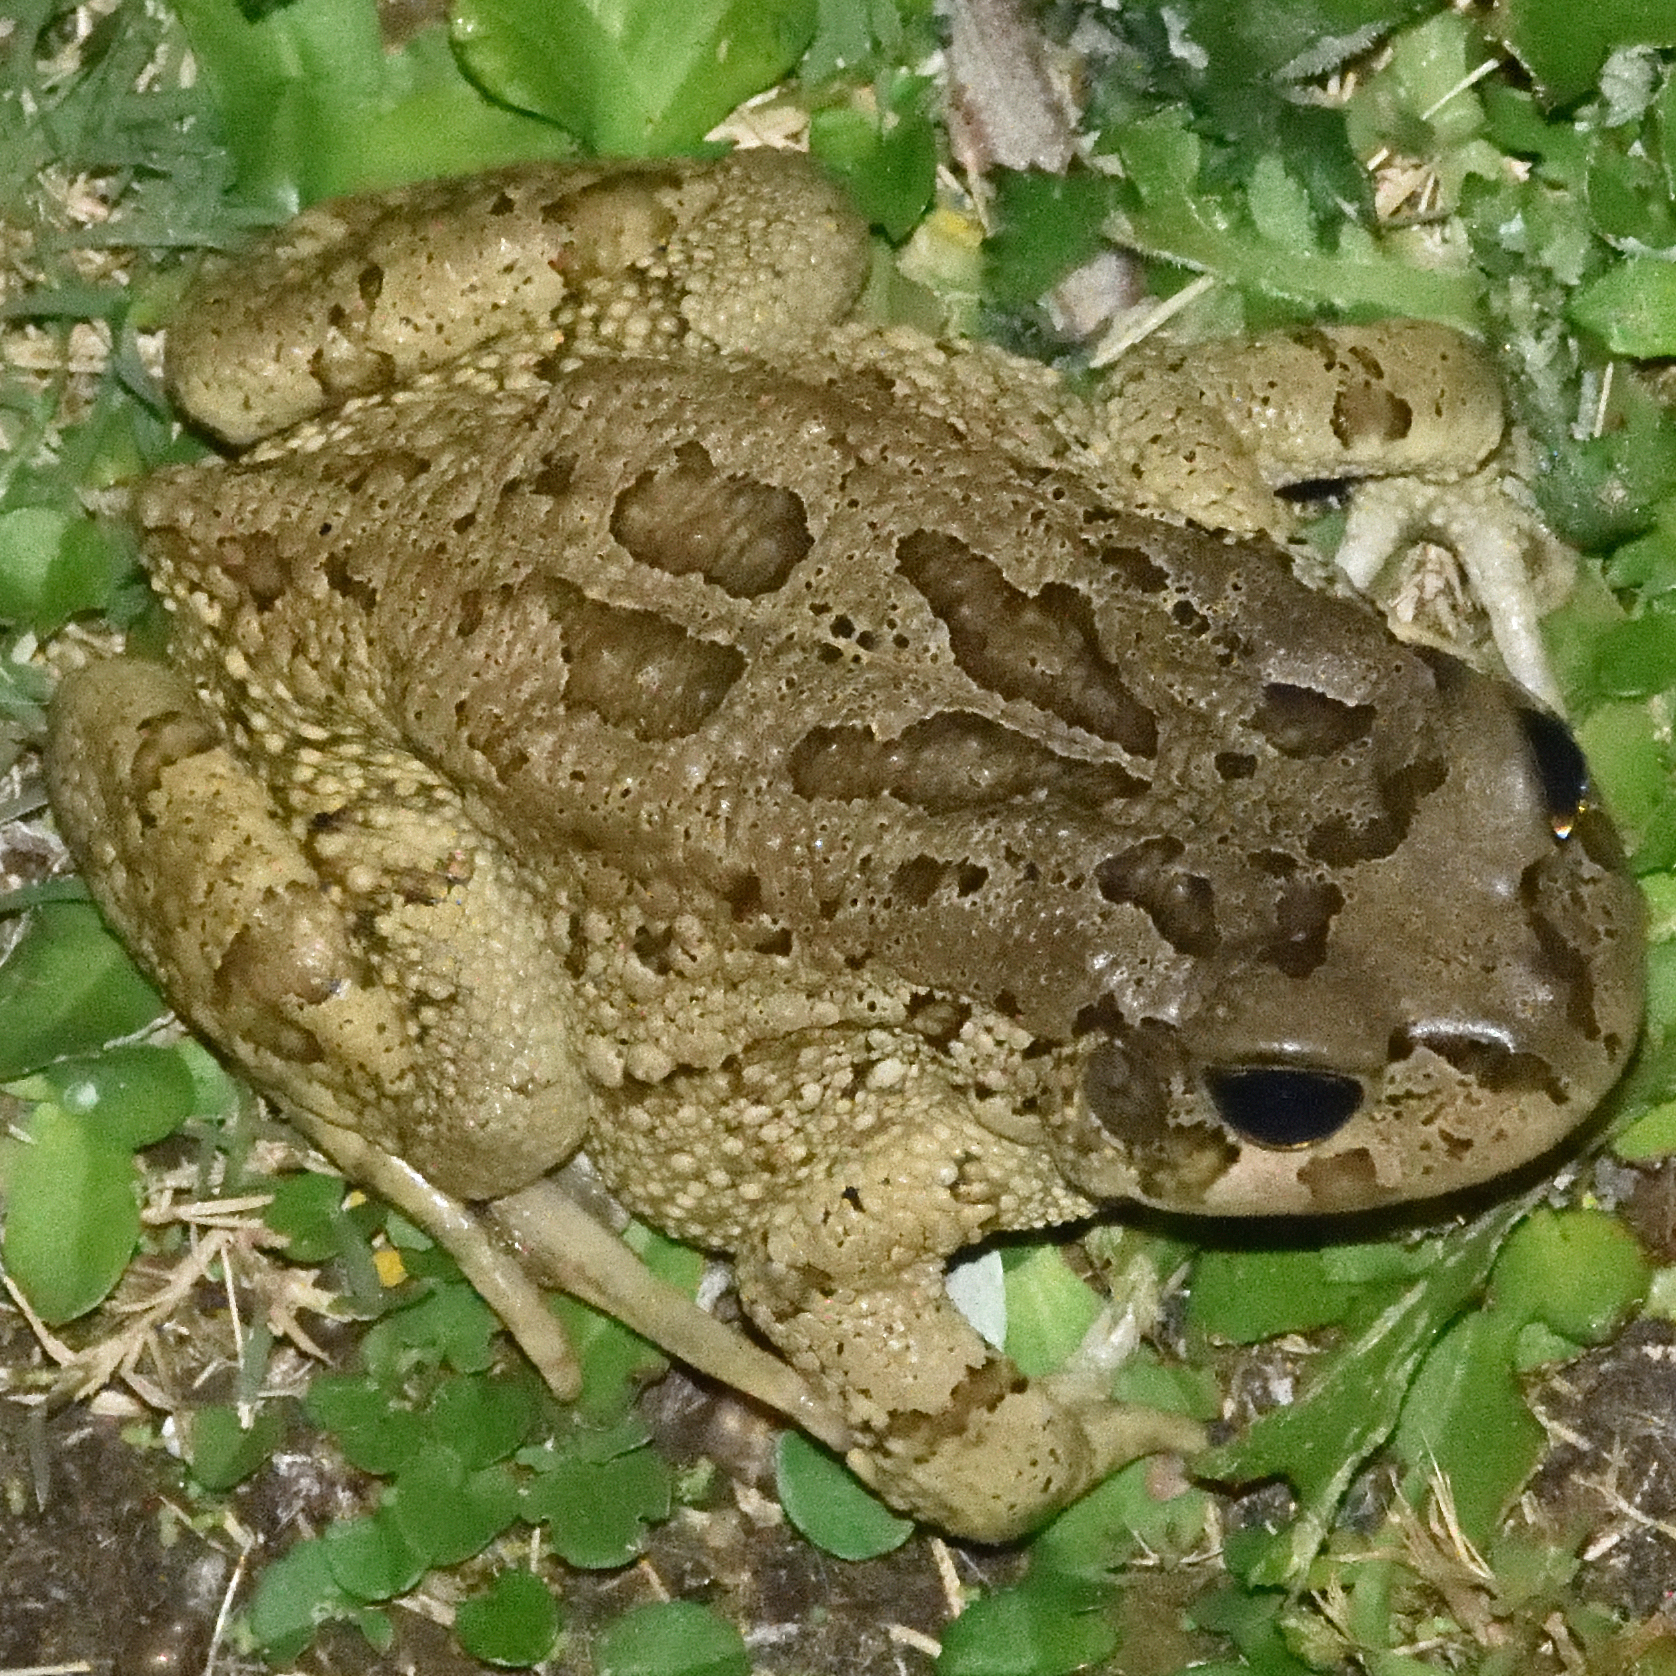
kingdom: Animalia
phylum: Chordata
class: Amphibia
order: Anura
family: Bufonidae
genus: Sclerophrys
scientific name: Sclerophrys capensis
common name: Ranger’s toad
